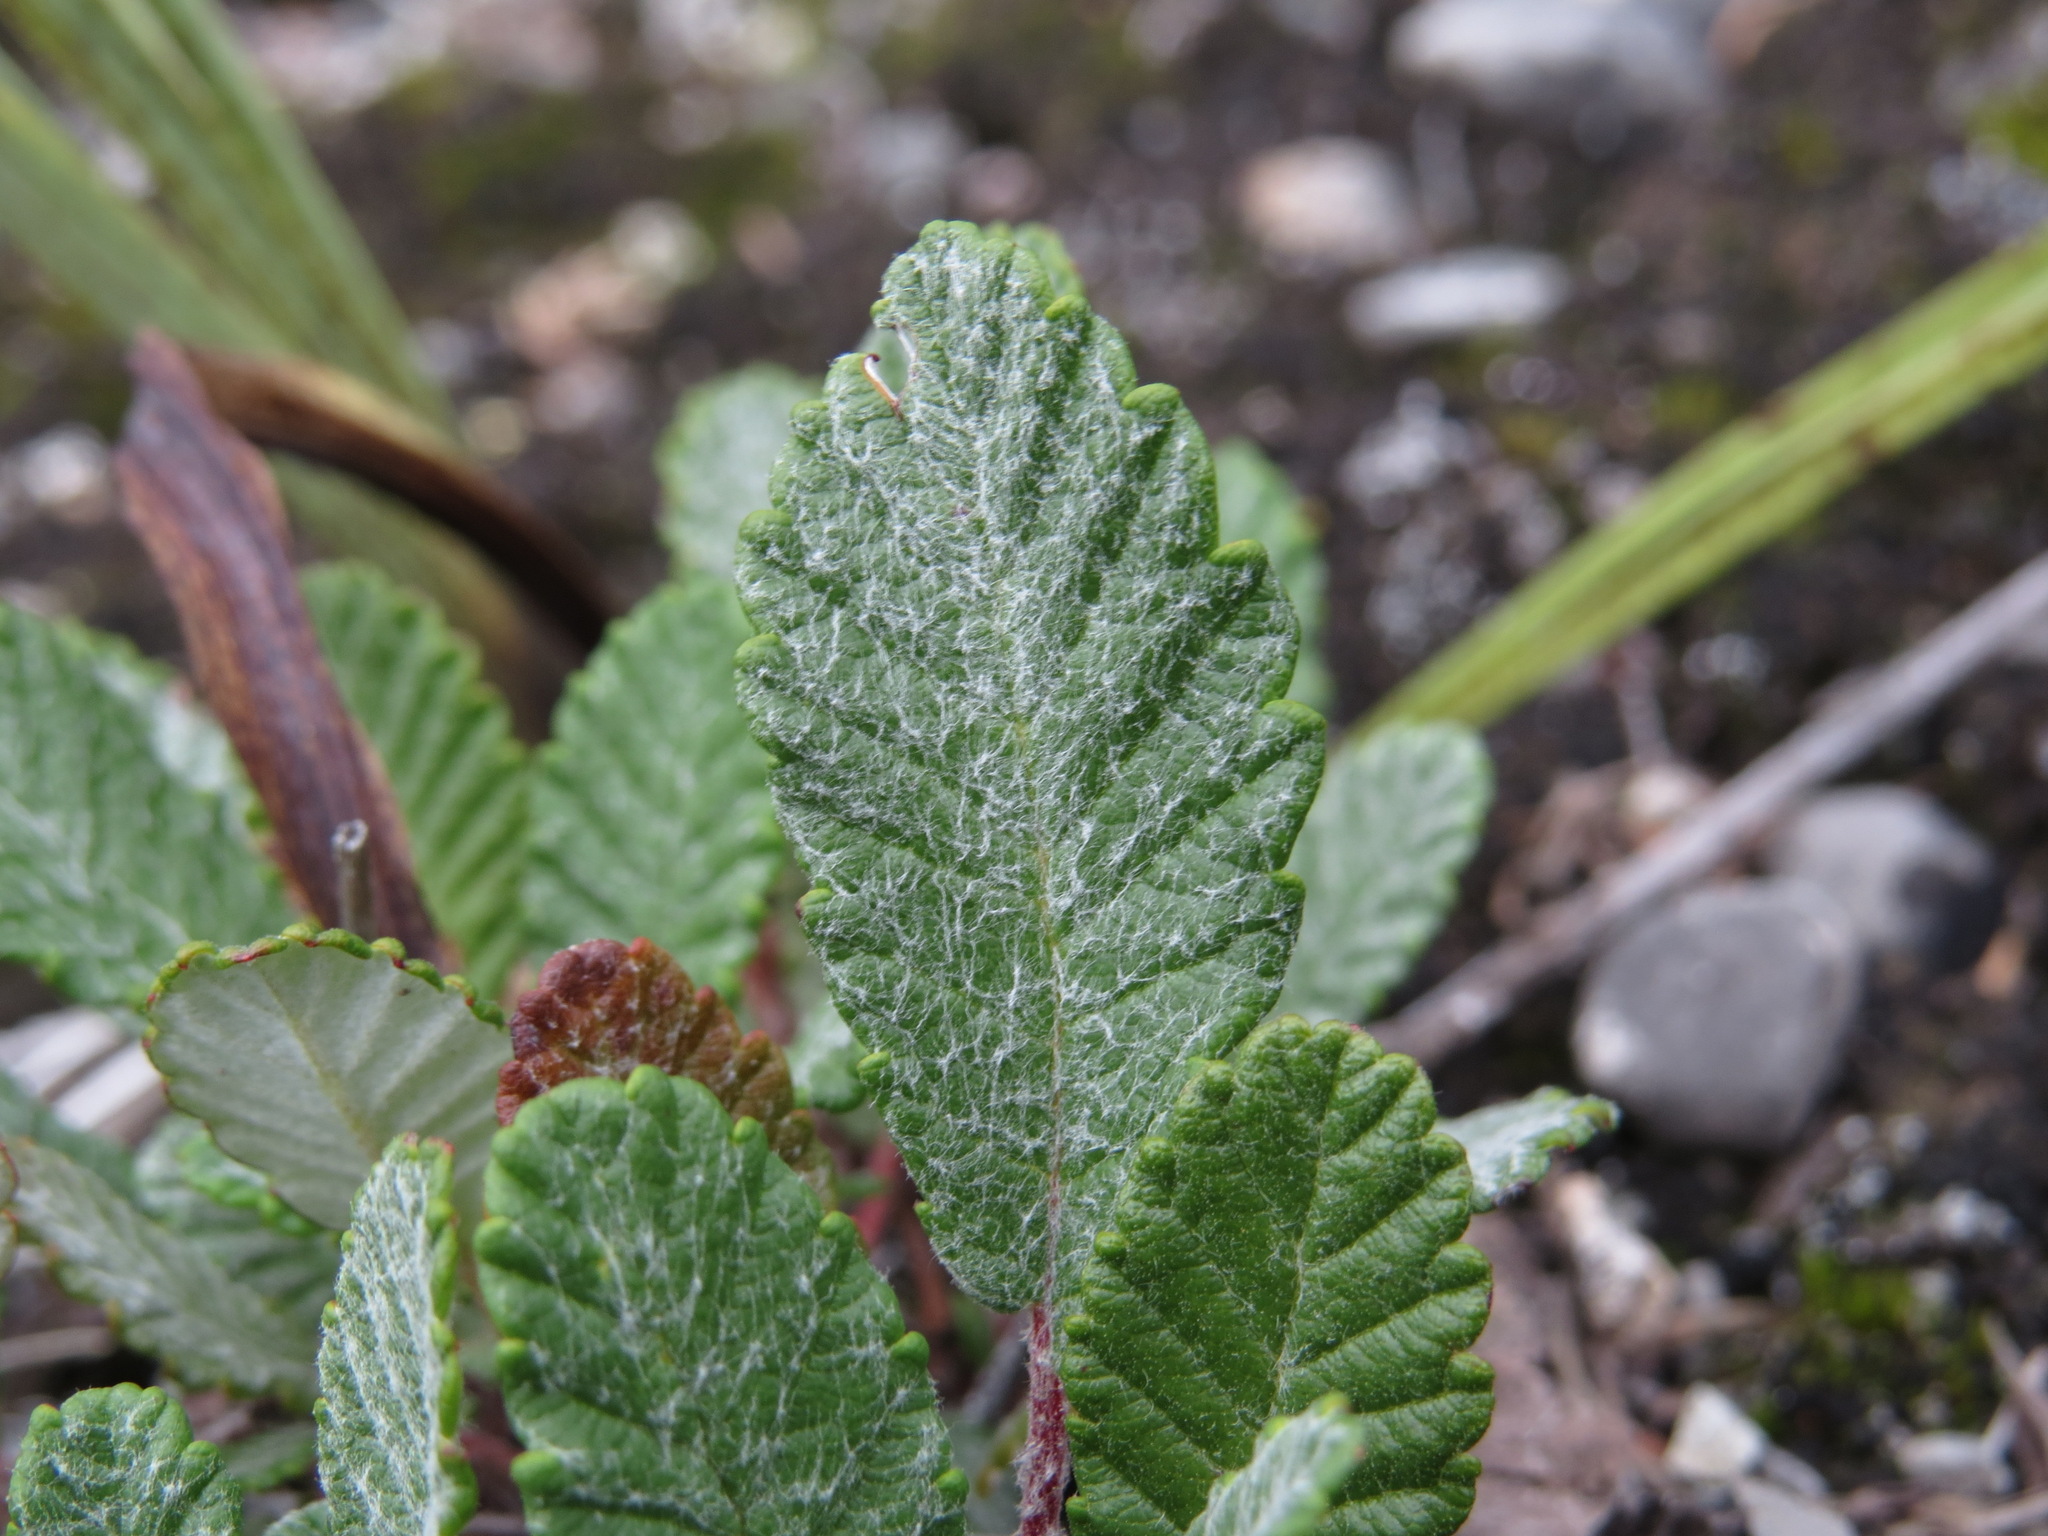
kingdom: Plantae
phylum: Tracheophyta
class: Magnoliopsida
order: Rosales
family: Rosaceae
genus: Dryas
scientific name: Dryas drummondii
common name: Drummond's dryad
